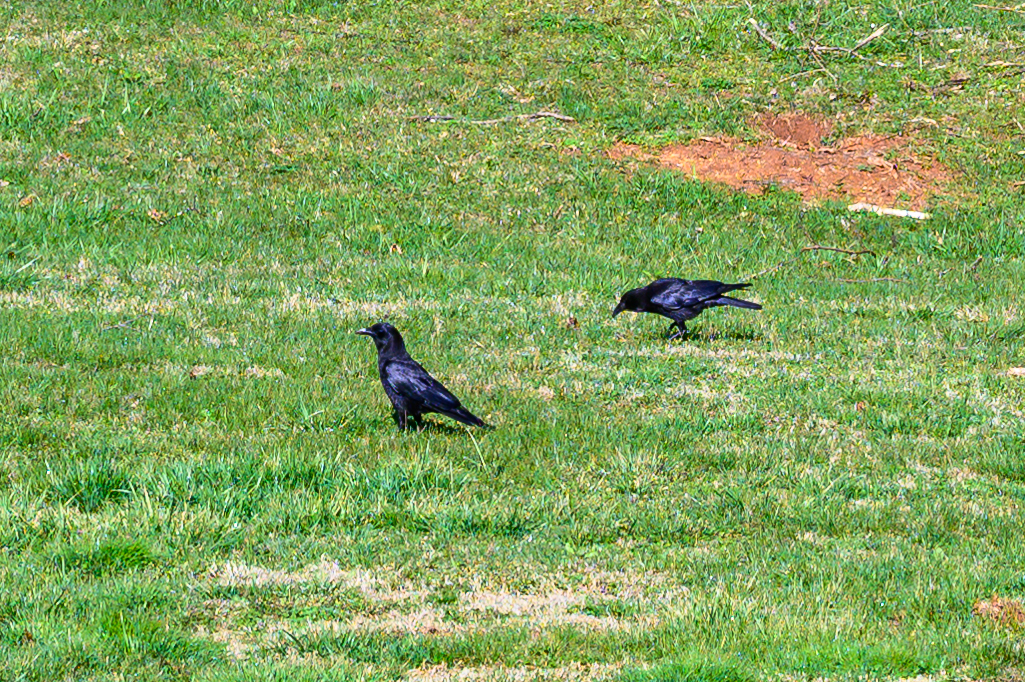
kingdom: Animalia
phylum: Chordata
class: Aves
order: Passeriformes
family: Corvidae
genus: Corvus
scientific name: Corvus brachyrhynchos
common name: American crow
